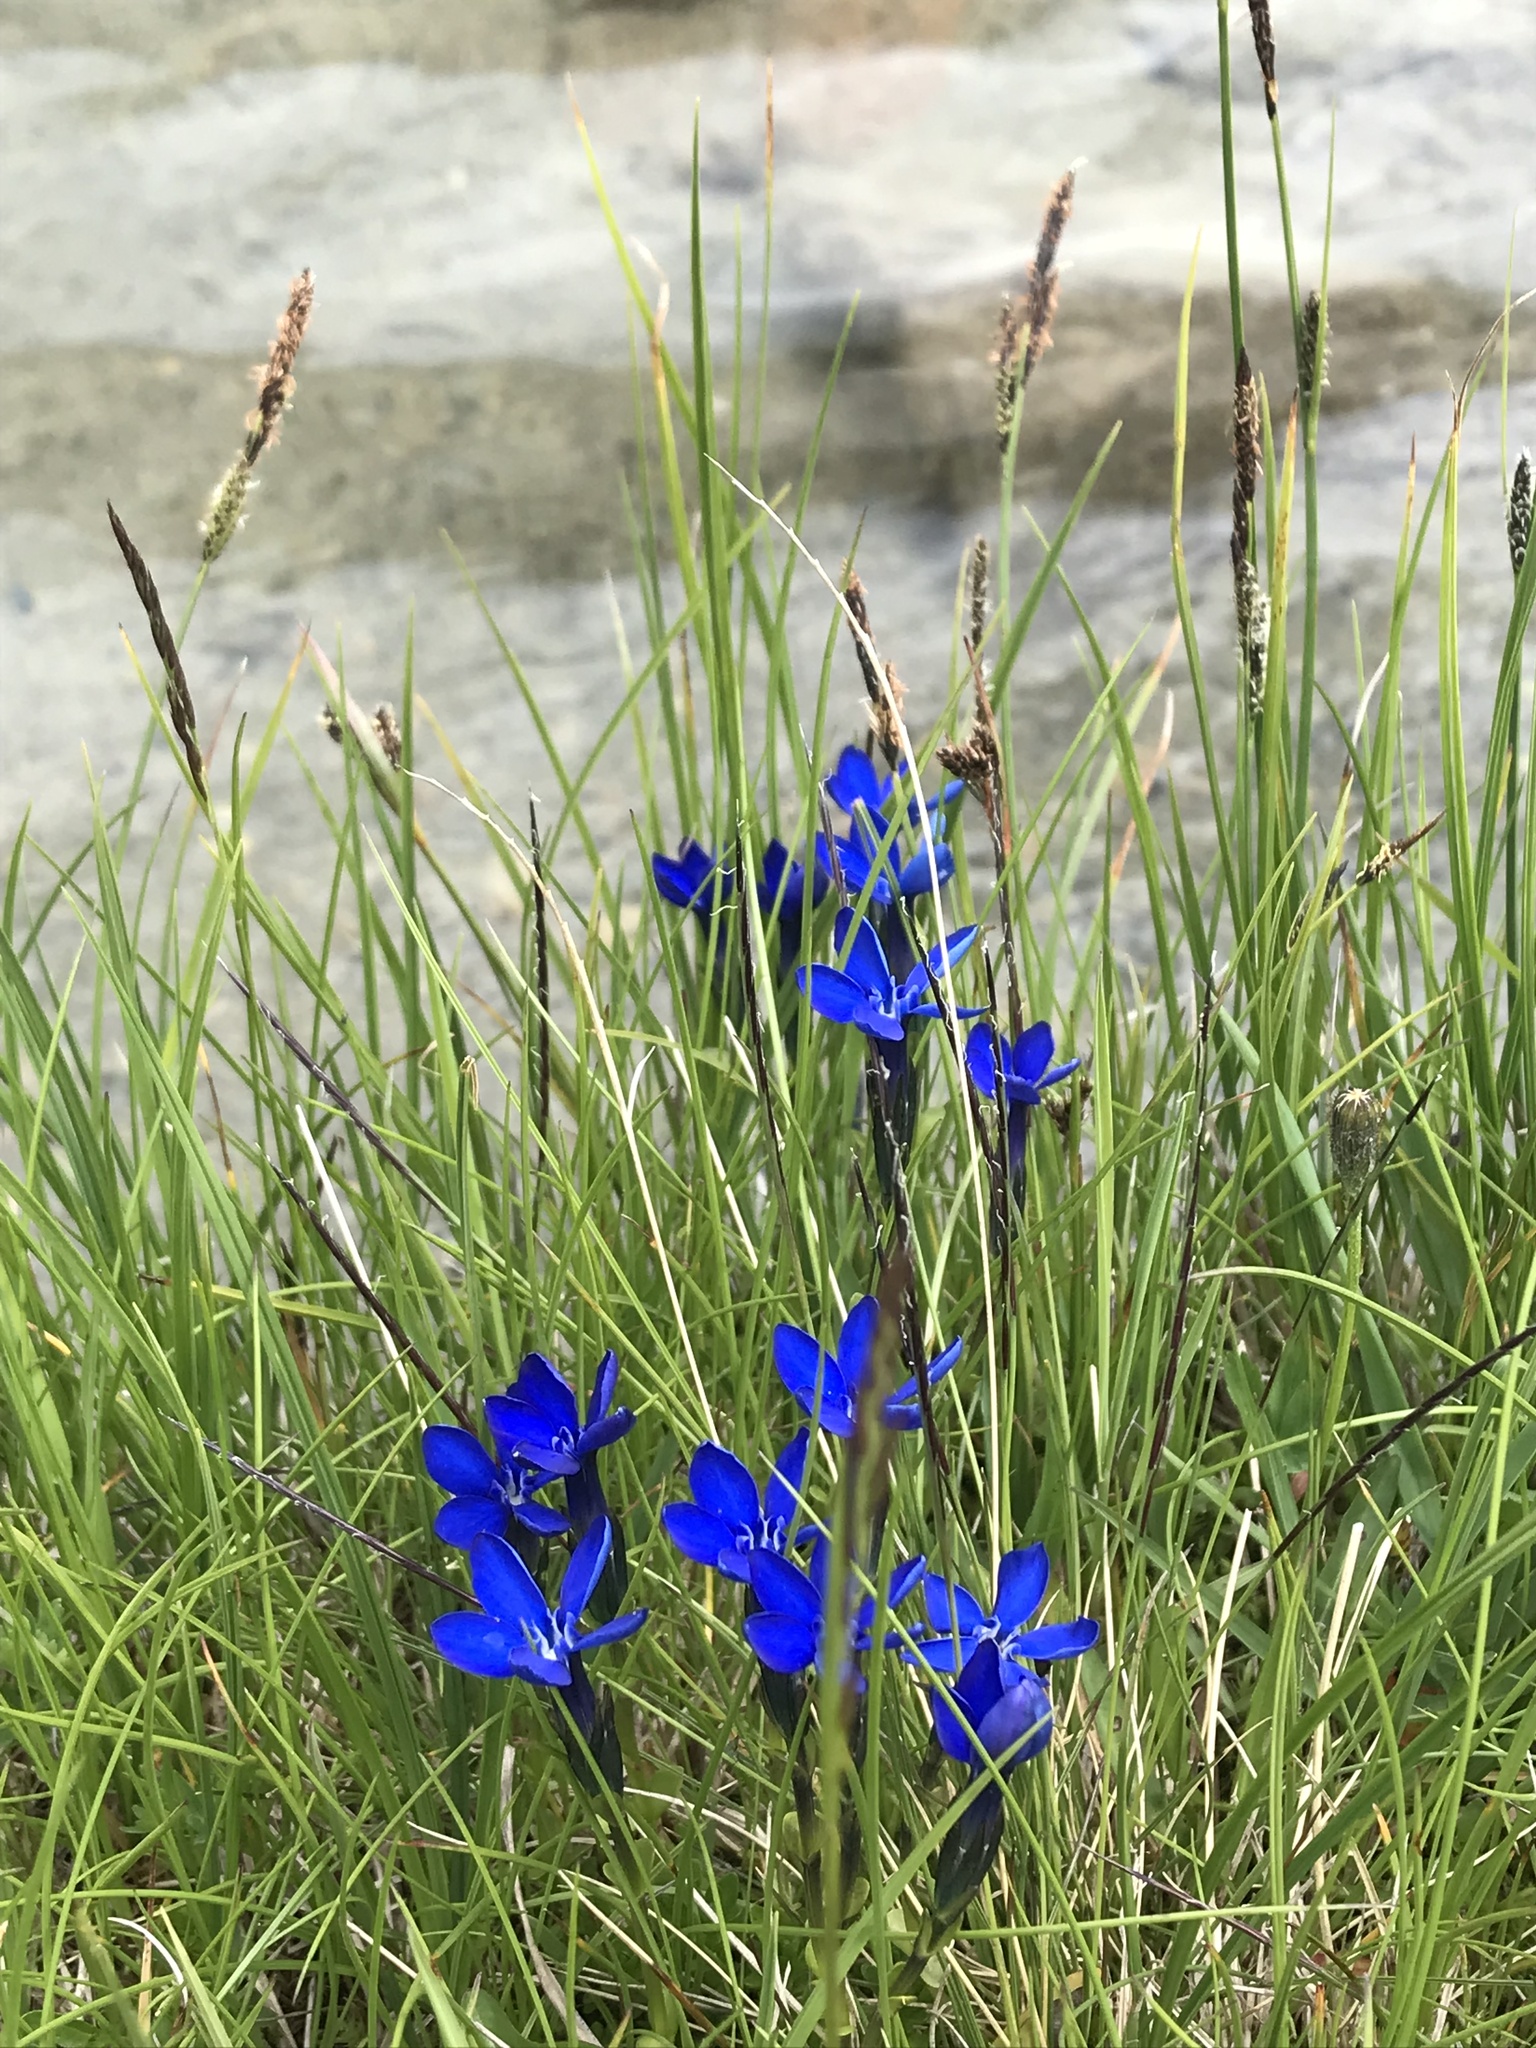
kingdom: Plantae
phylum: Tracheophyta
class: Magnoliopsida
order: Gentianales
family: Gentianaceae
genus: Gentiana
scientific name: Gentiana bavarica
